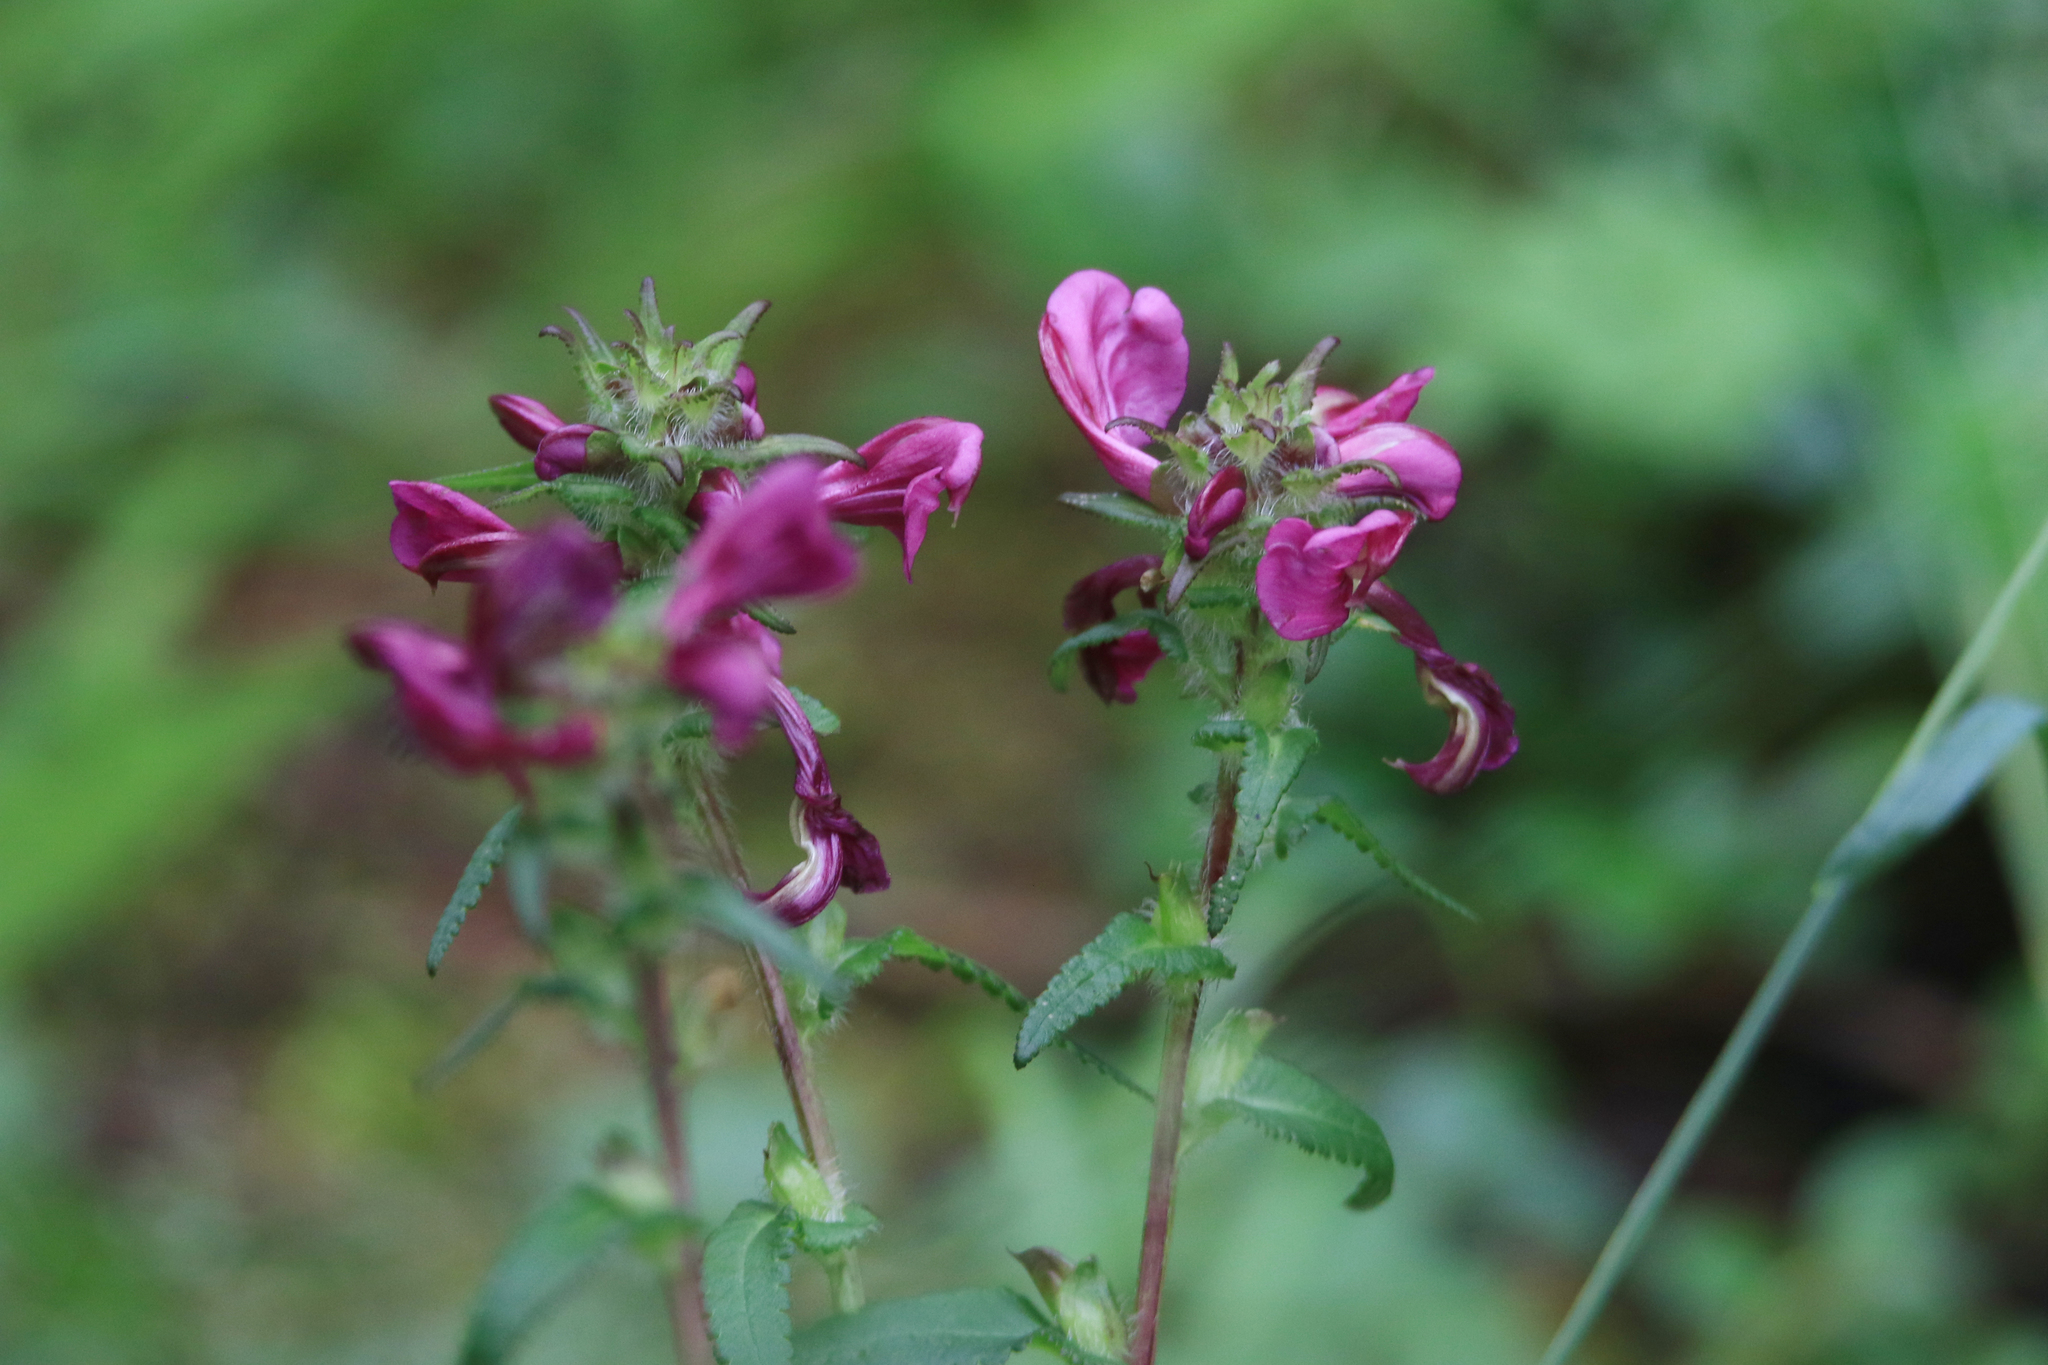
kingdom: Plantae
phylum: Tracheophyta
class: Magnoliopsida
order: Lamiales
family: Orobanchaceae
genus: Pedicularis
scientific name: Pedicularis resupinata
